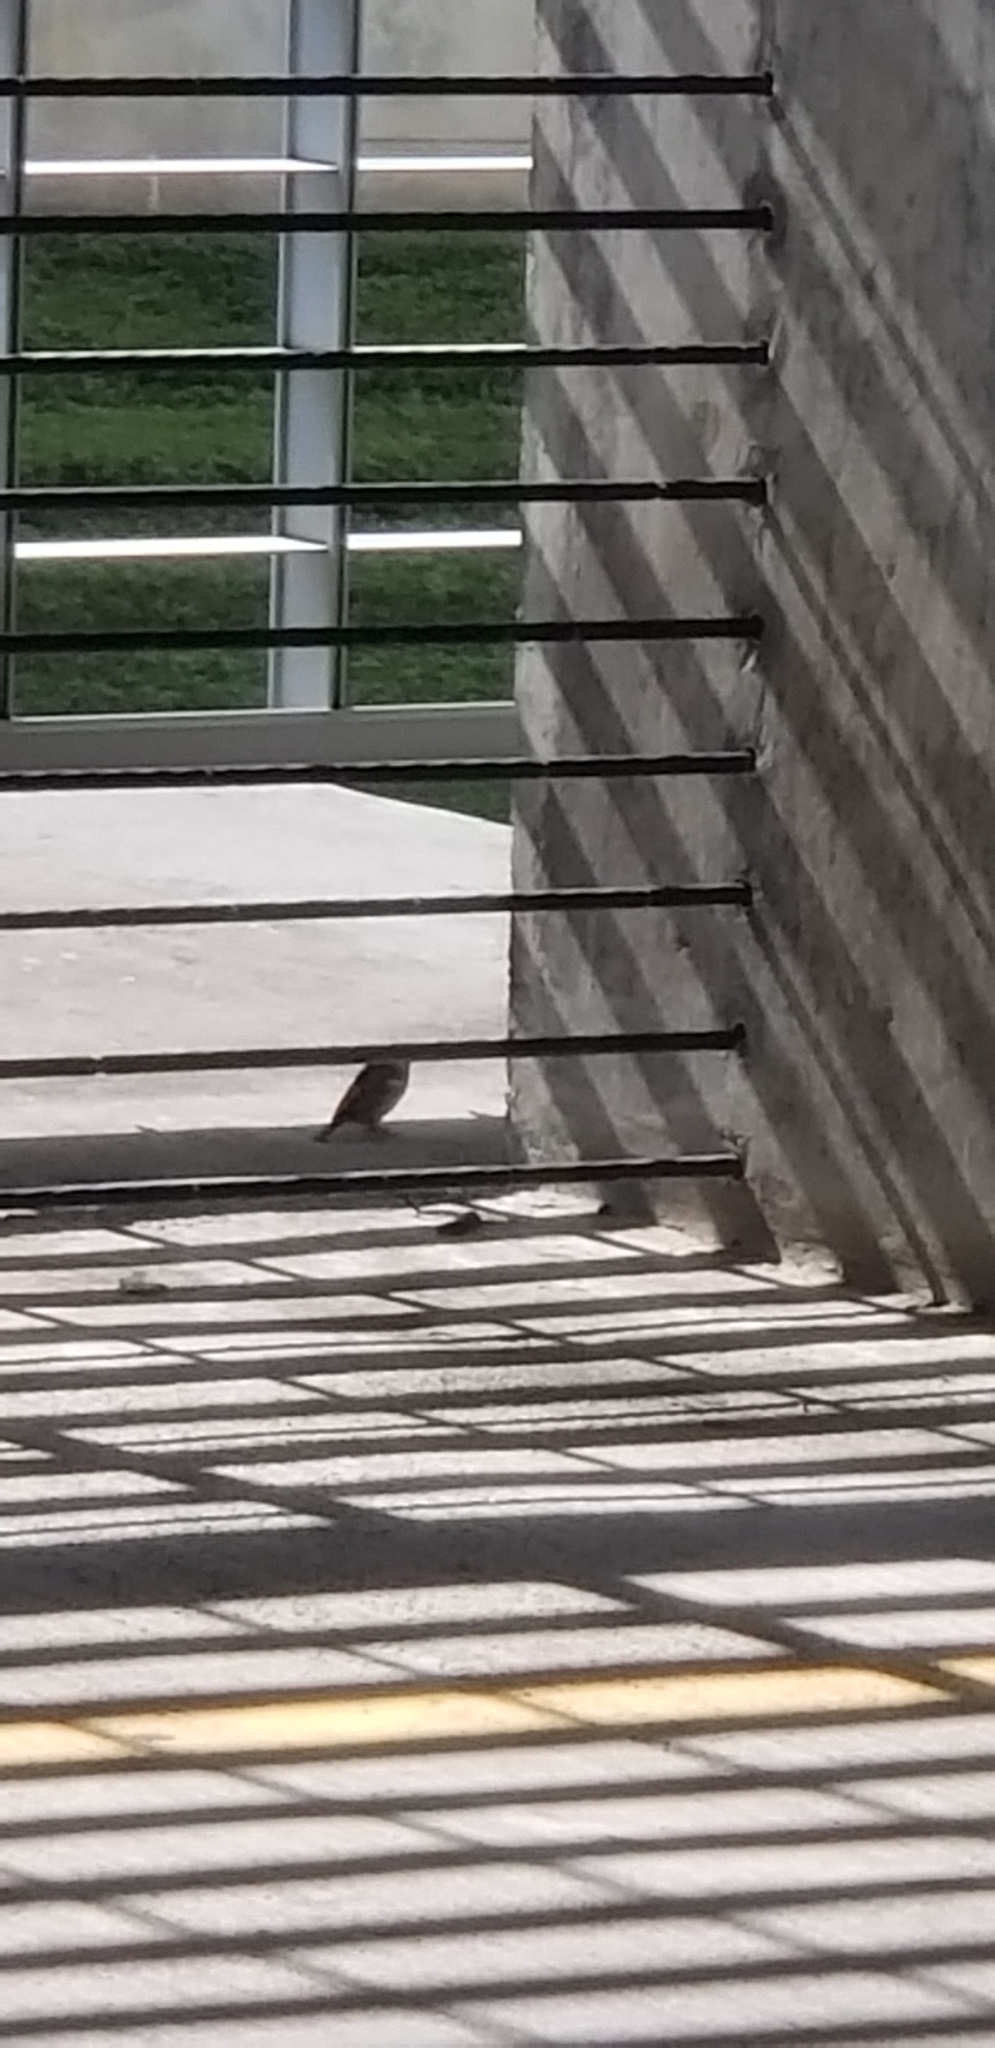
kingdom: Animalia
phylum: Chordata
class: Aves
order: Passeriformes
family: Passeridae
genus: Passer
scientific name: Passer domesticus
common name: House sparrow
